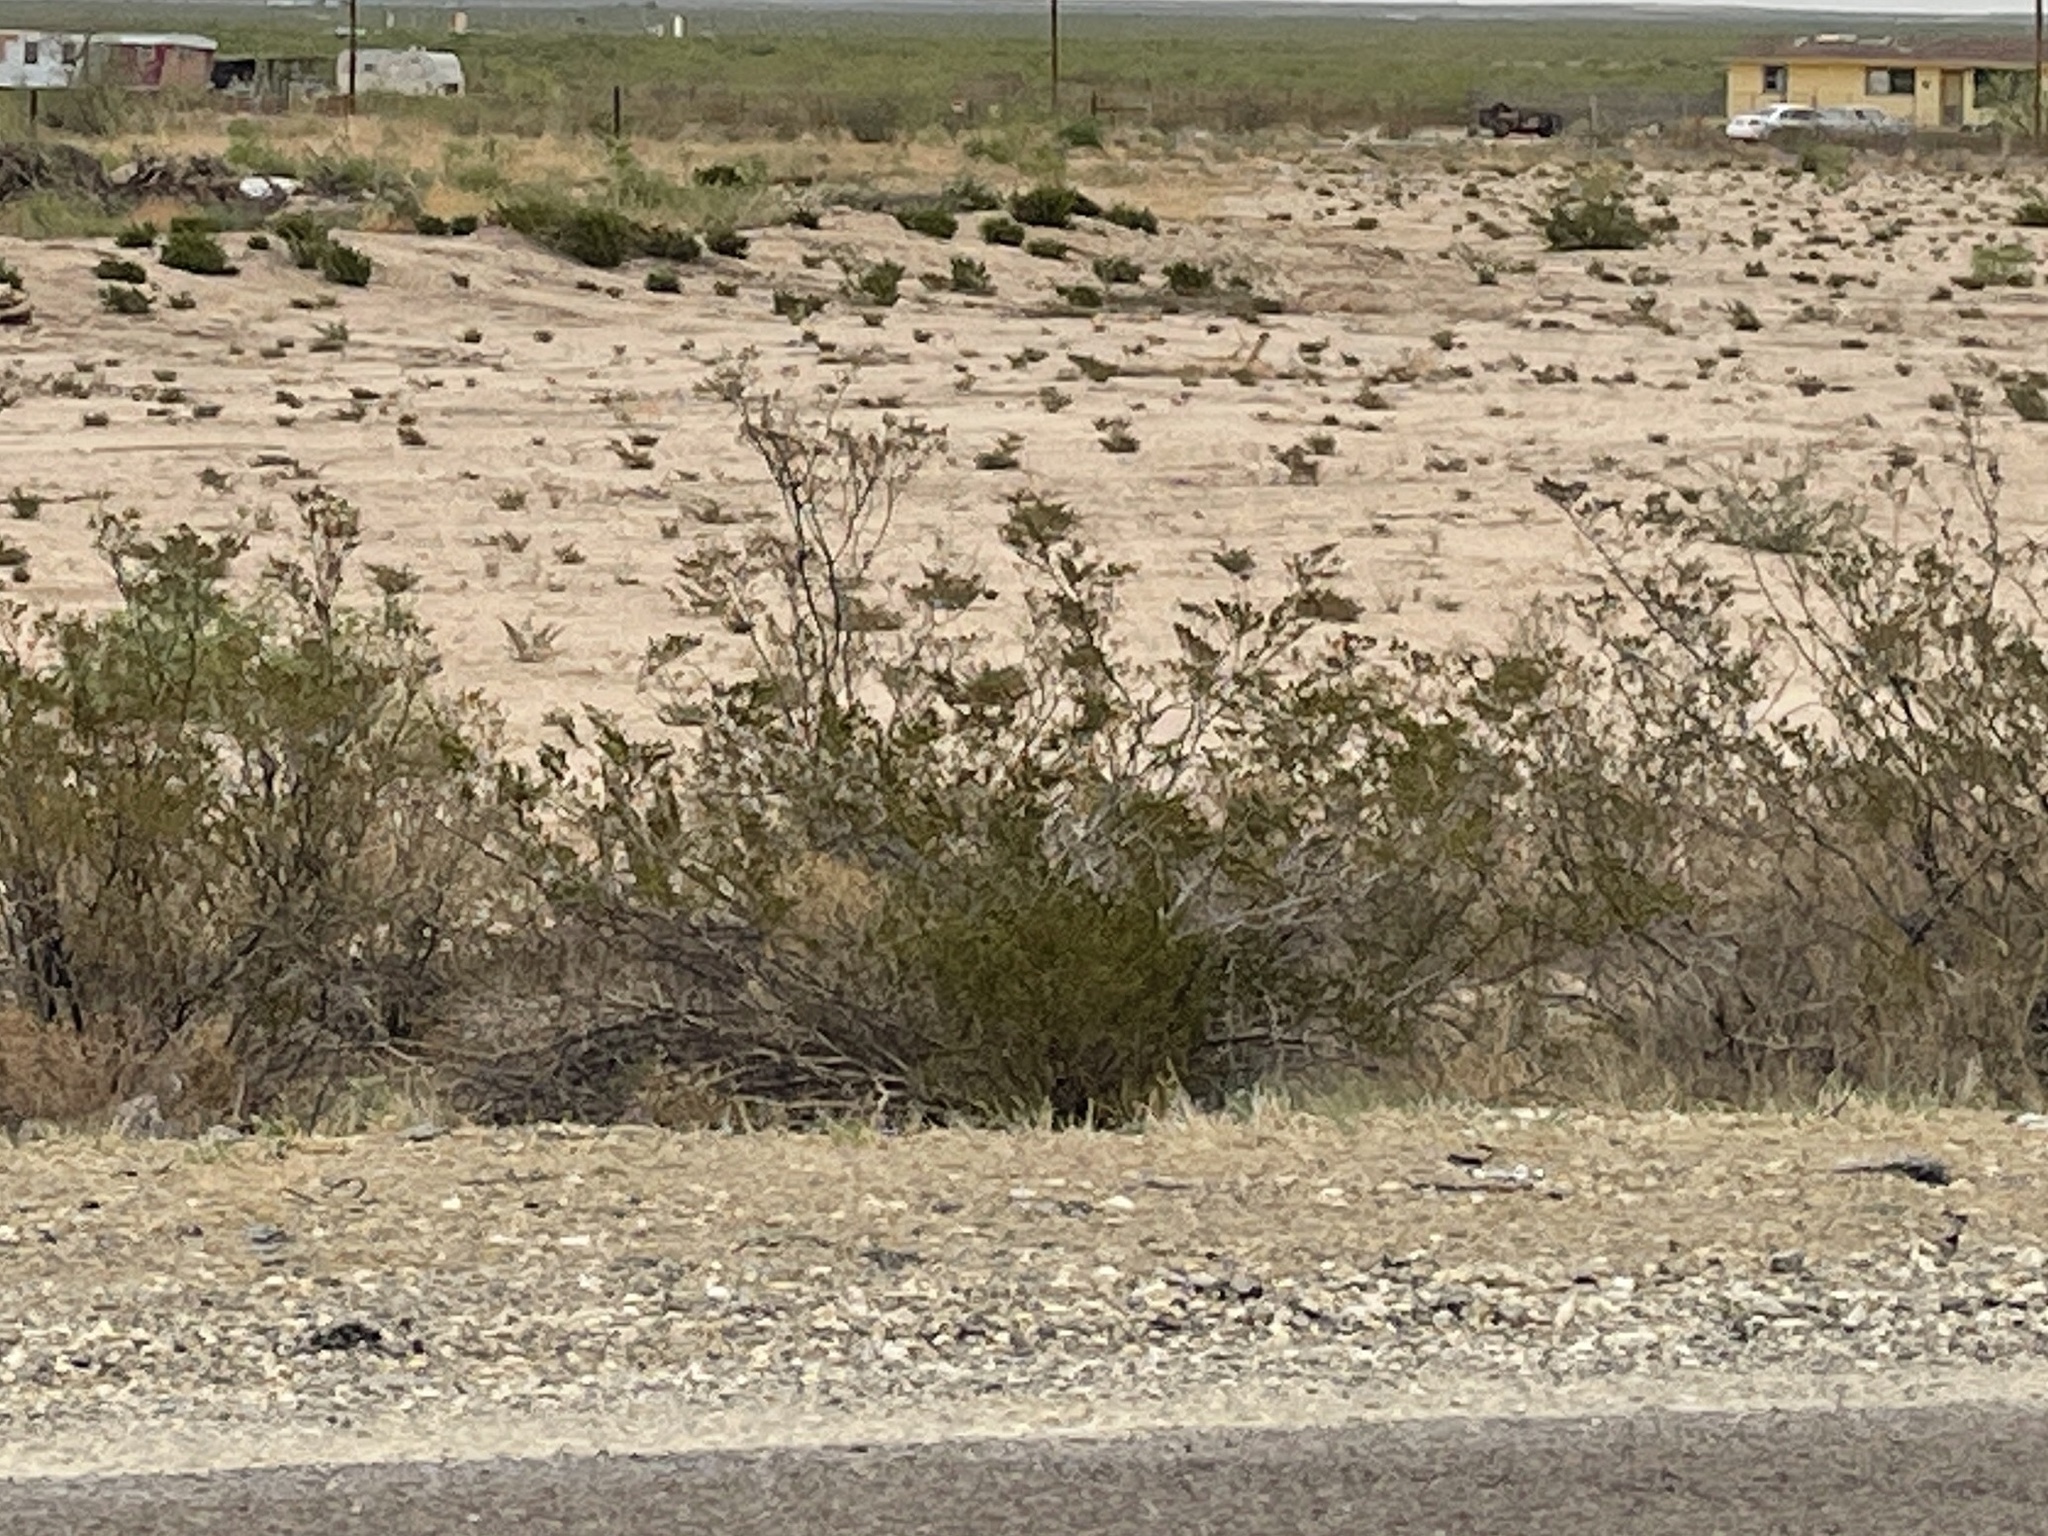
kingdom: Plantae
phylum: Tracheophyta
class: Magnoliopsida
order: Zygophyllales
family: Zygophyllaceae
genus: Larrea
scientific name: Larrea tridentata
